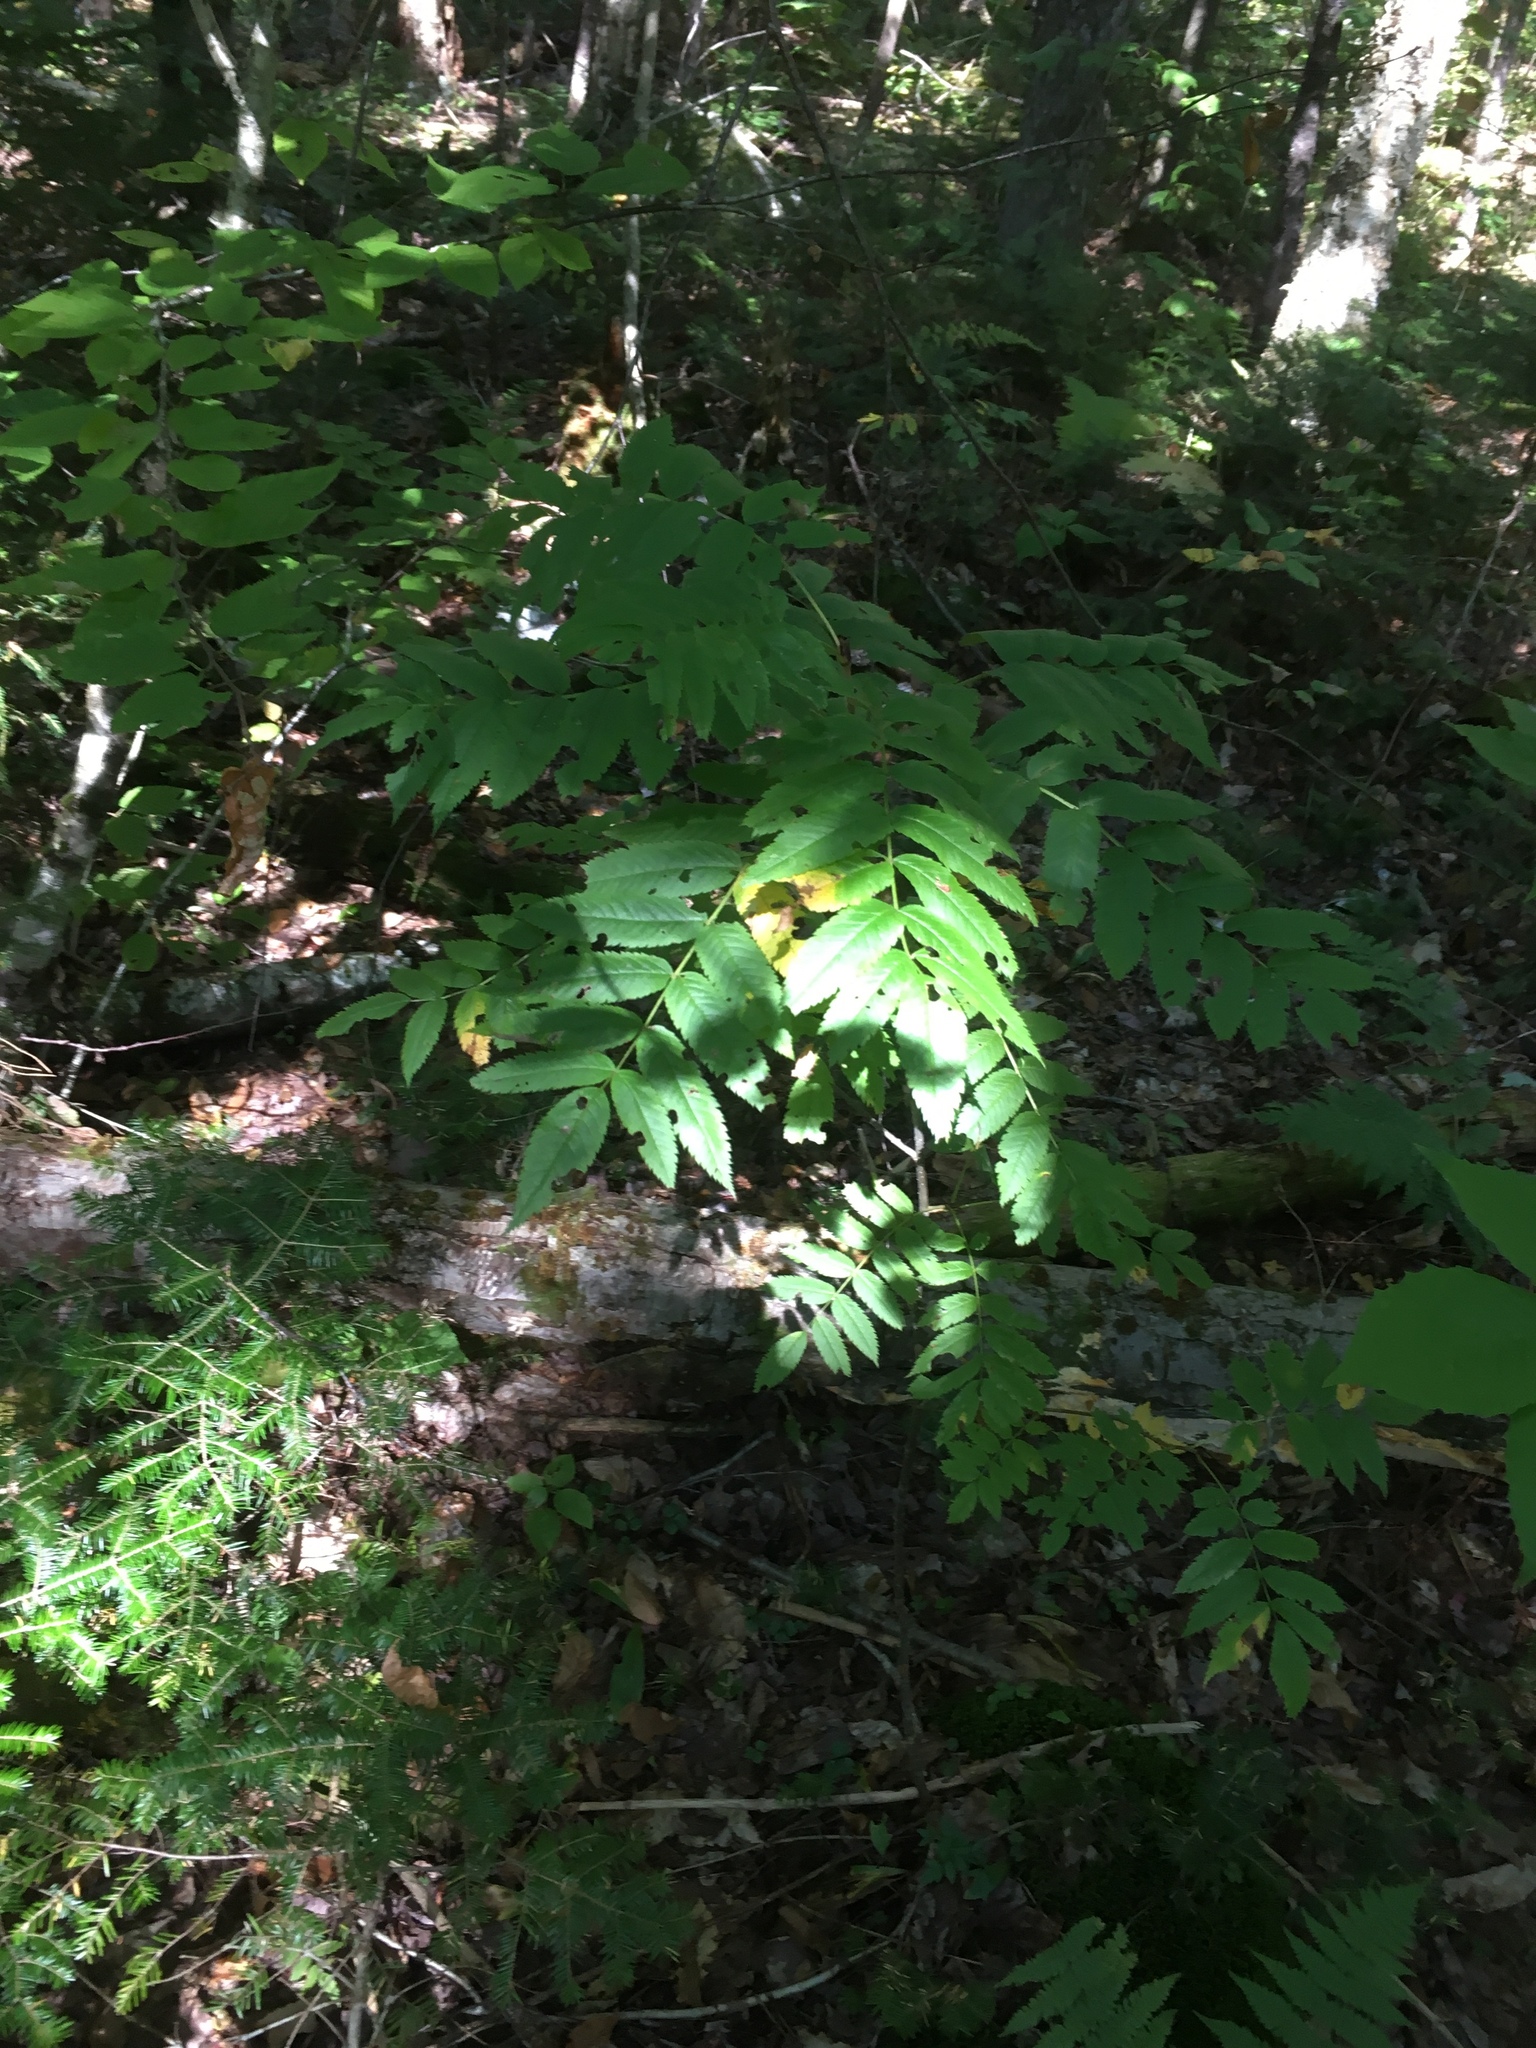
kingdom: Plantae
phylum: Tracheophyta
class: Magnoliopsida
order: Rosales
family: Rosaceae
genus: Sorbus
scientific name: Sorbus americana
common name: American mountain-ash
